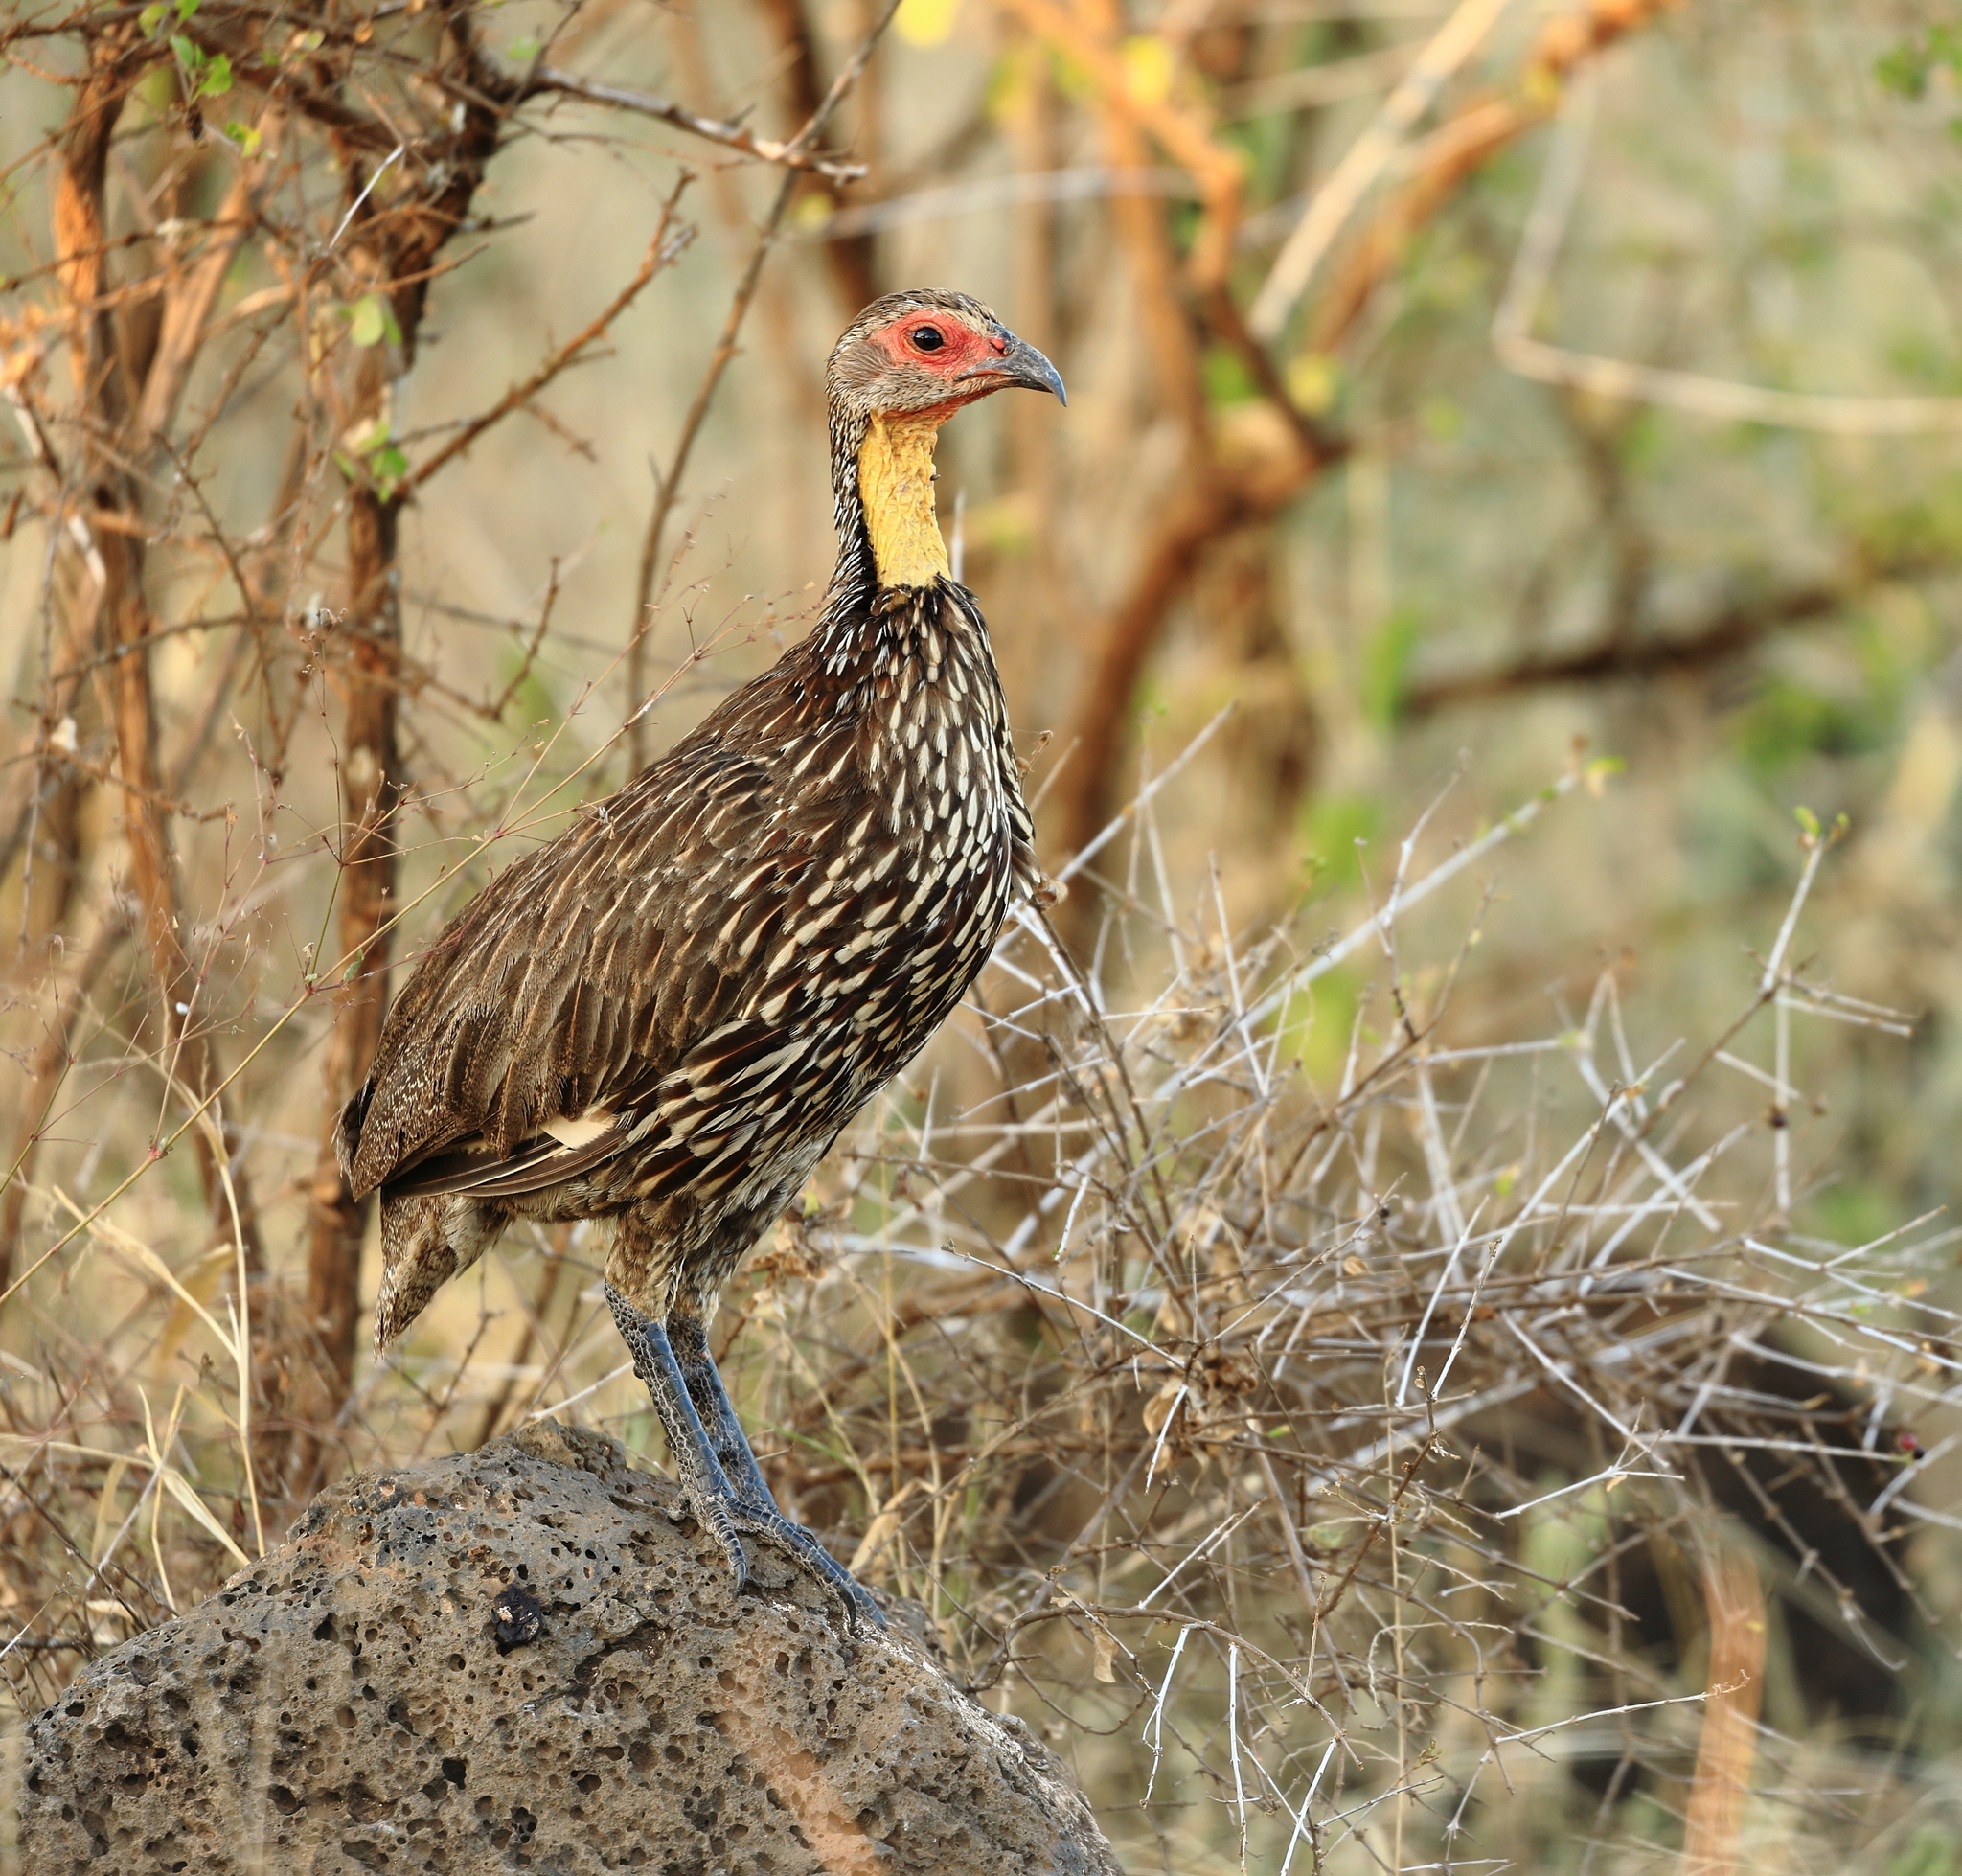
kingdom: Animalia
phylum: Chordata
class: Aves
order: Galliformes
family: Phasianidae
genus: Pternistis
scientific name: Pternistis leucoscepus
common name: Yellow-necked spurfowl
